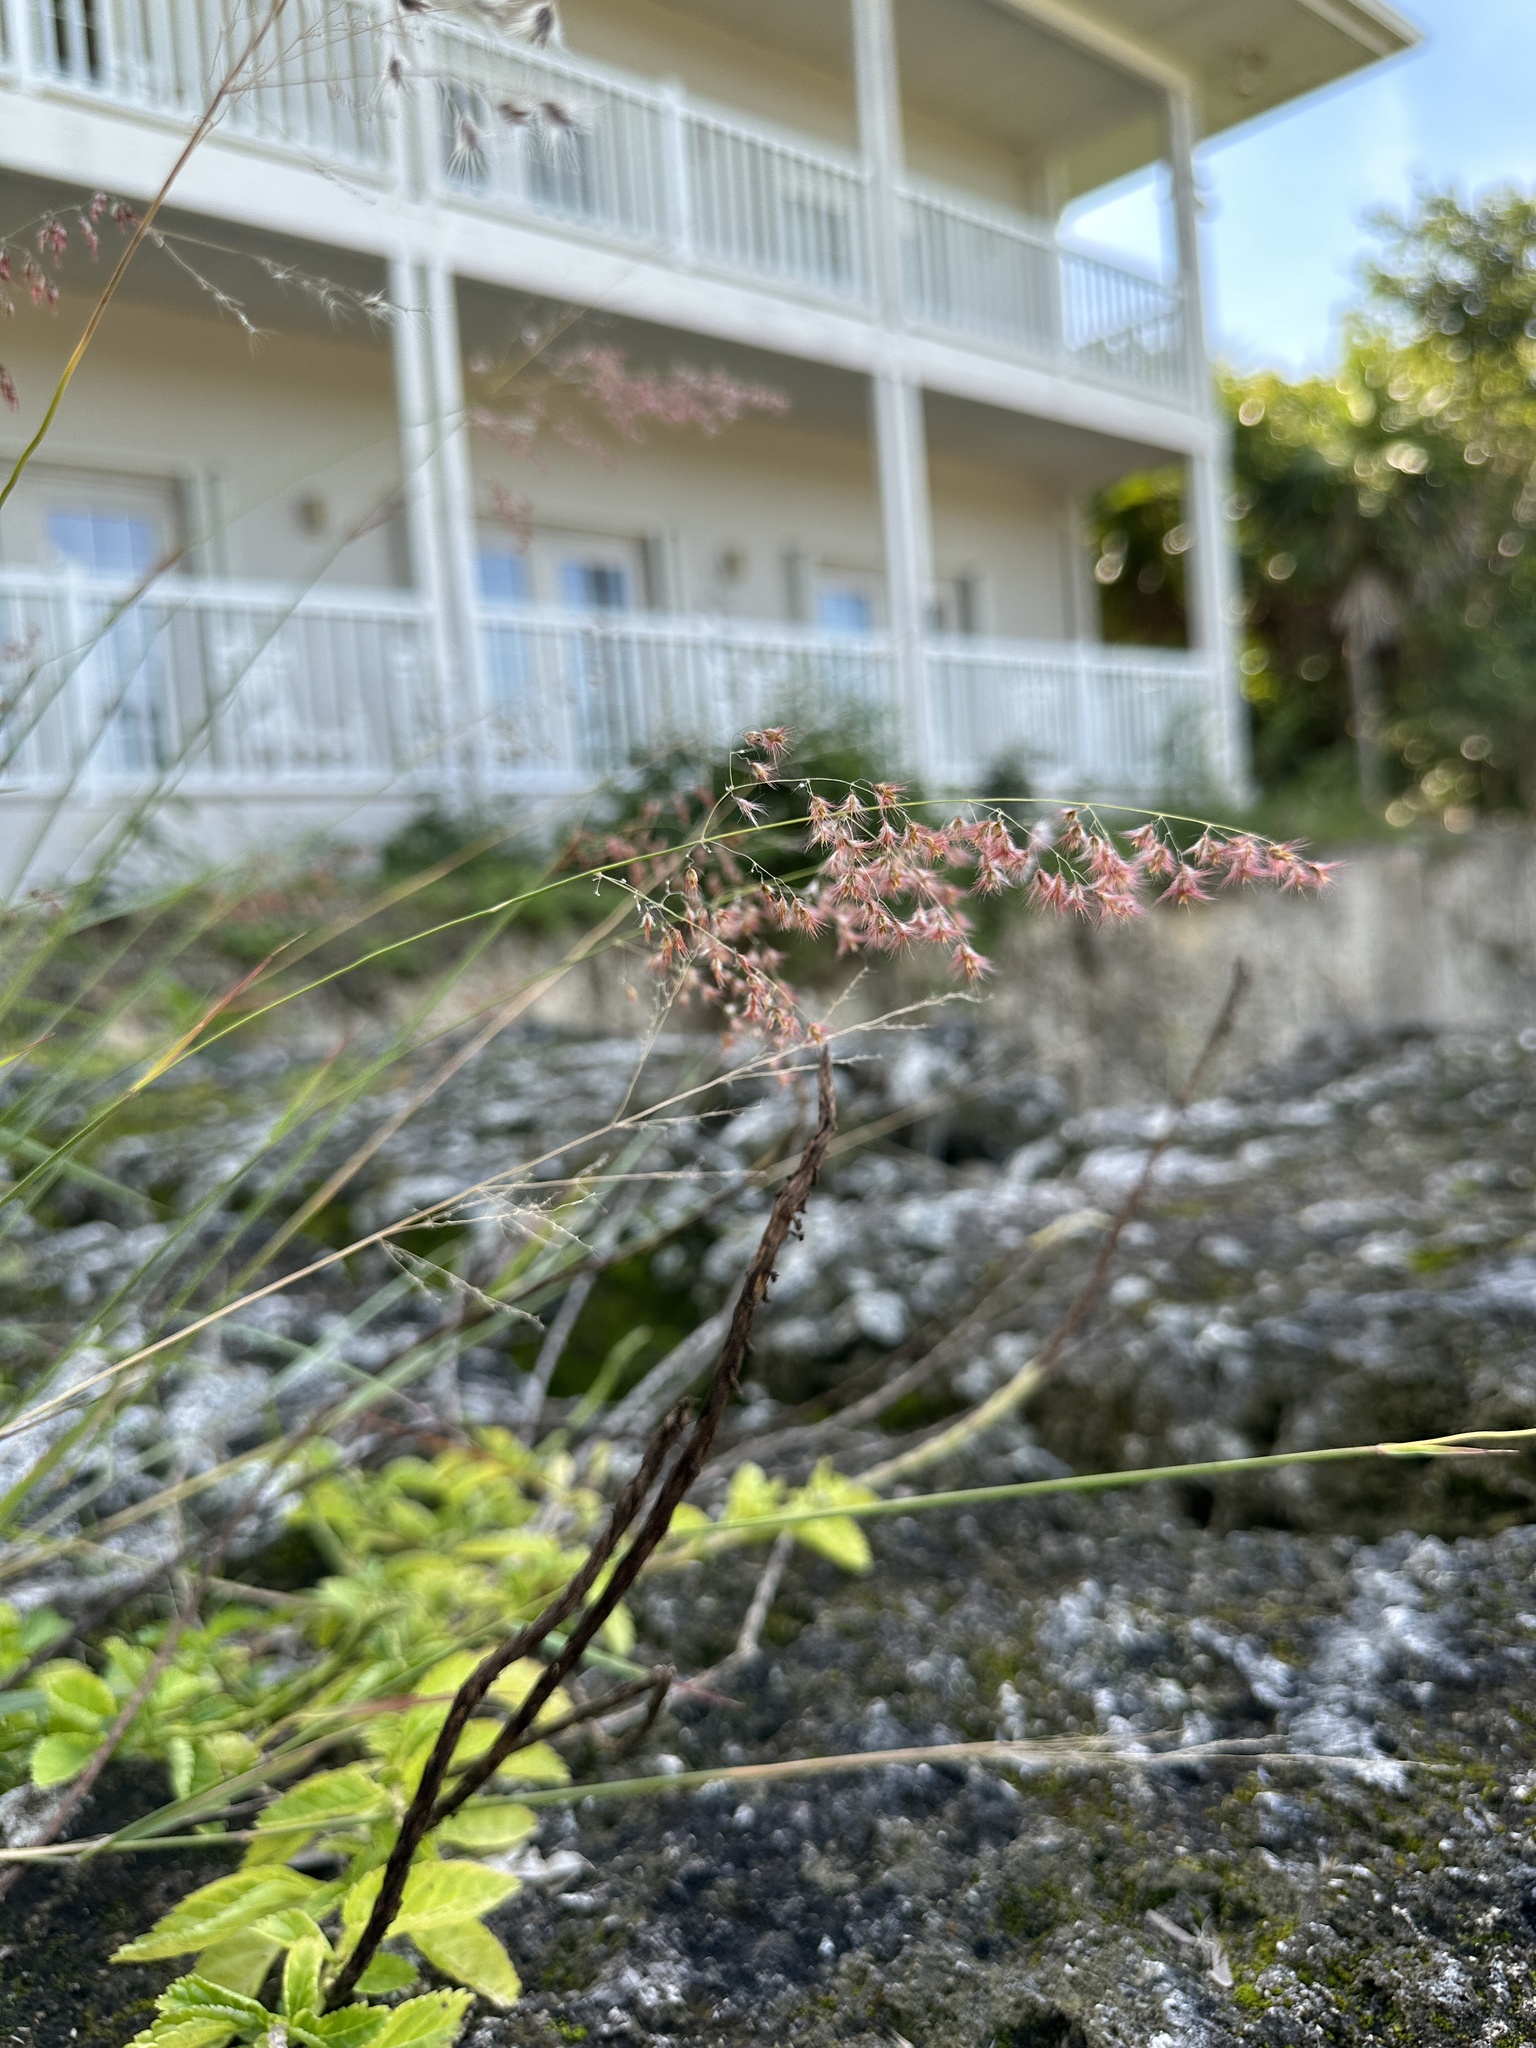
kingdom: Plantae
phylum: Tracheophyta
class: Liliopsida
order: Poales
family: Poaceae
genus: Melinis
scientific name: Melinis repens
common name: Rose natal grass
